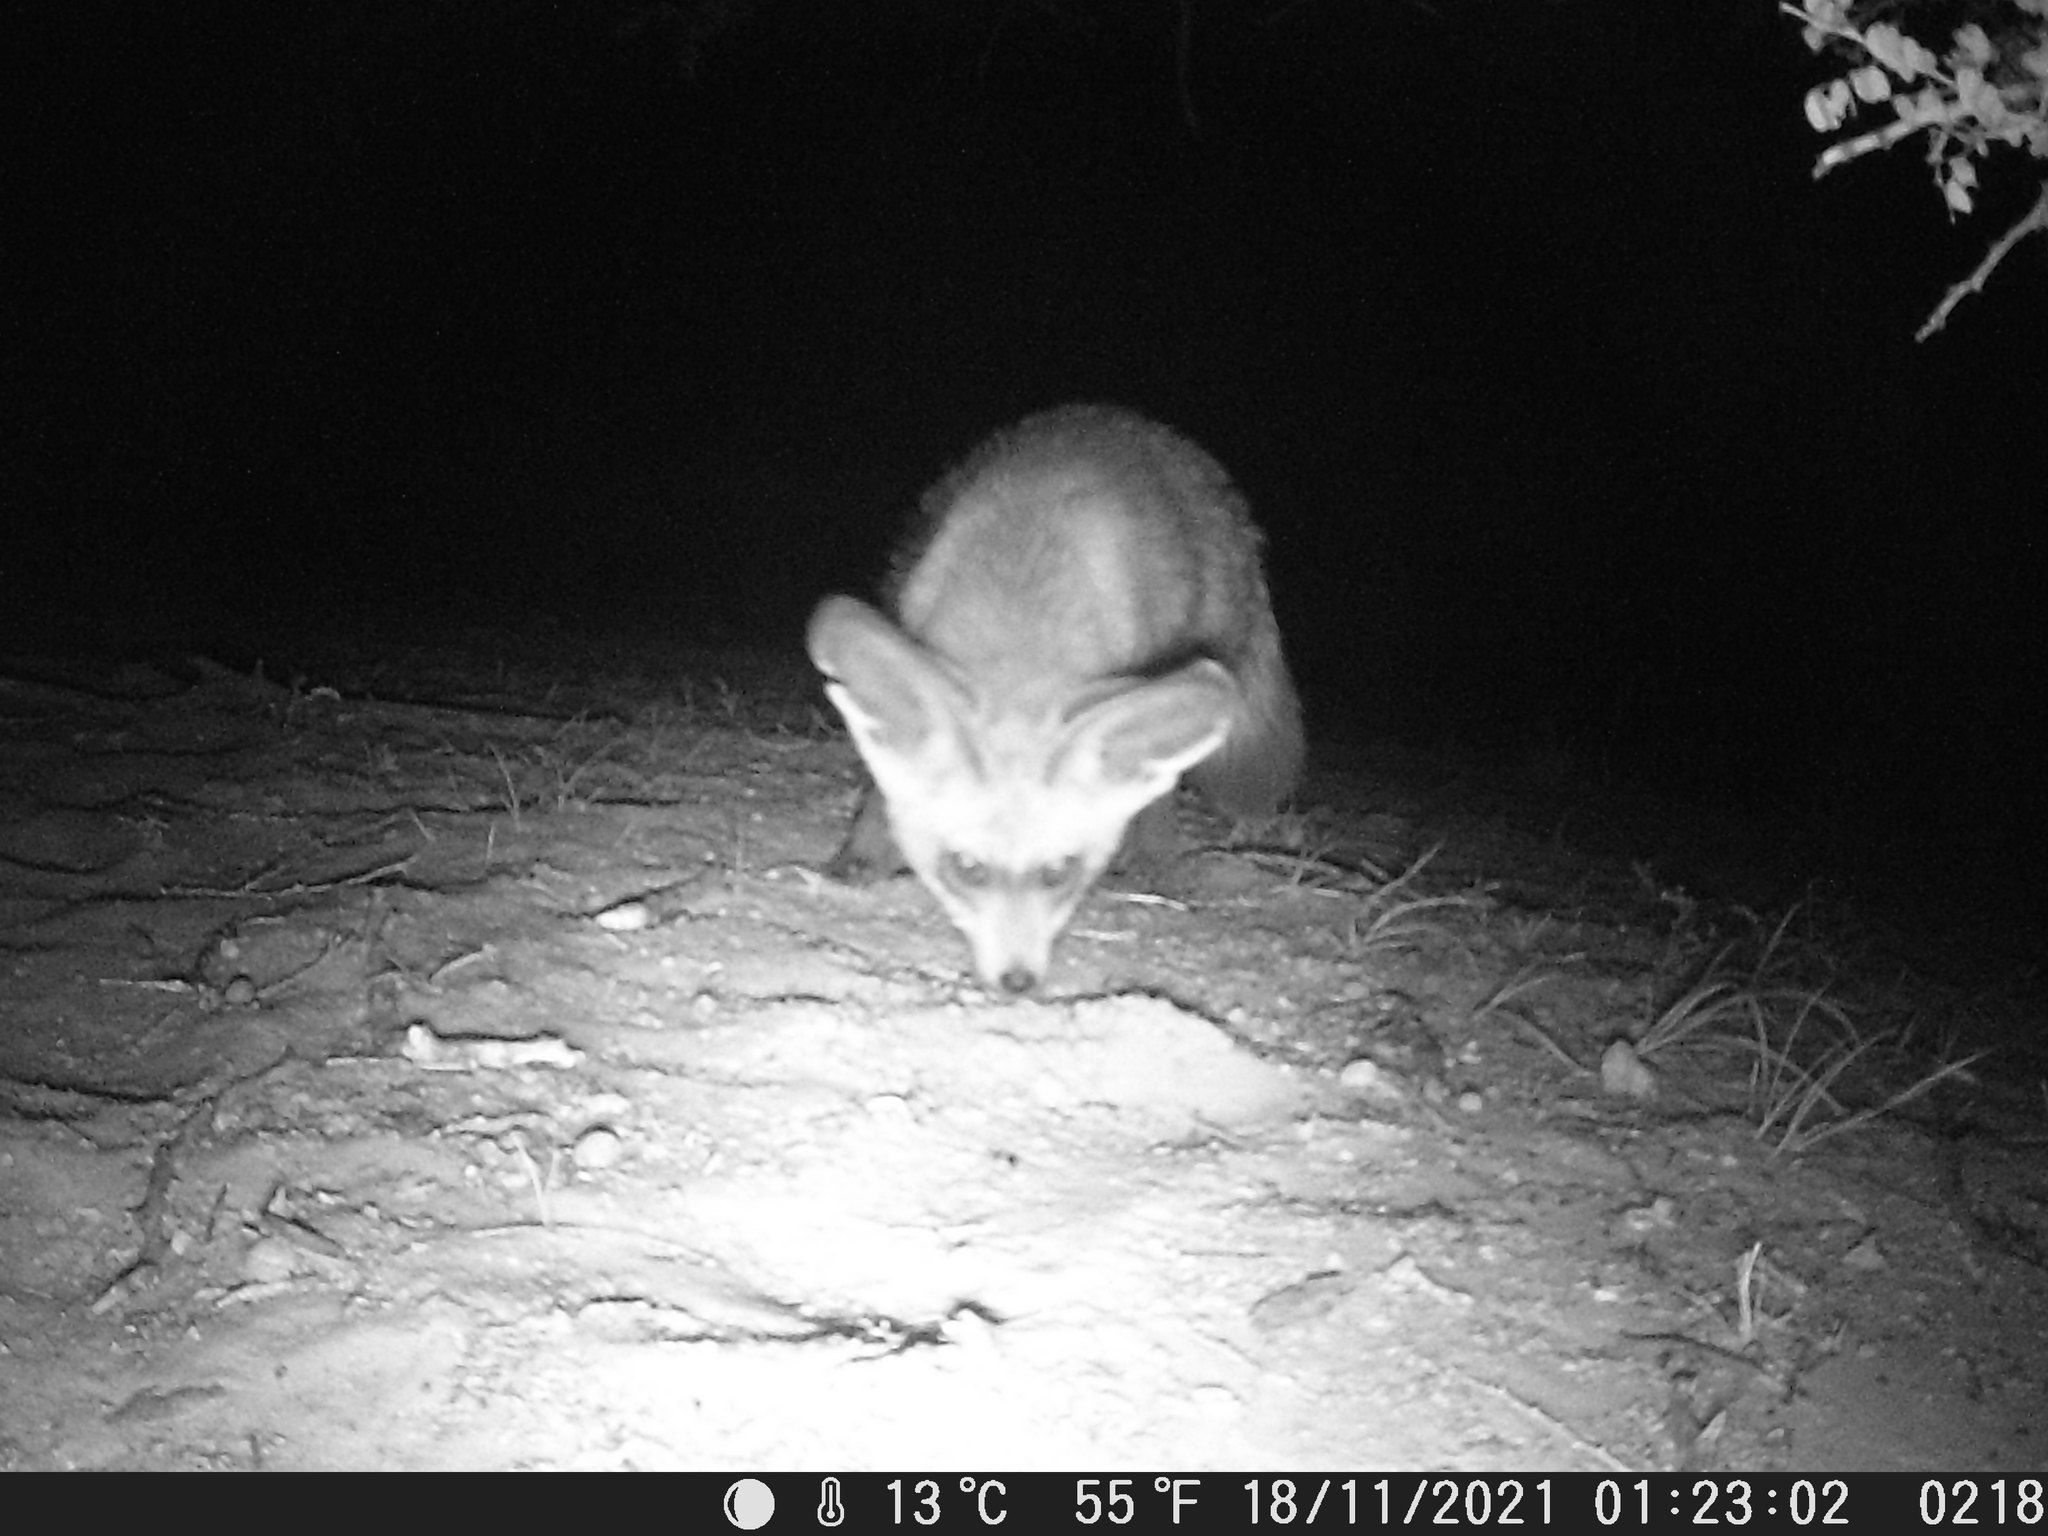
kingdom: Animalia
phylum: Chordata
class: Mammalia
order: Carnivora
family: Canidae
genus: Otocyon
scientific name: Otocyon megalotis
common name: Bat-eared fox
